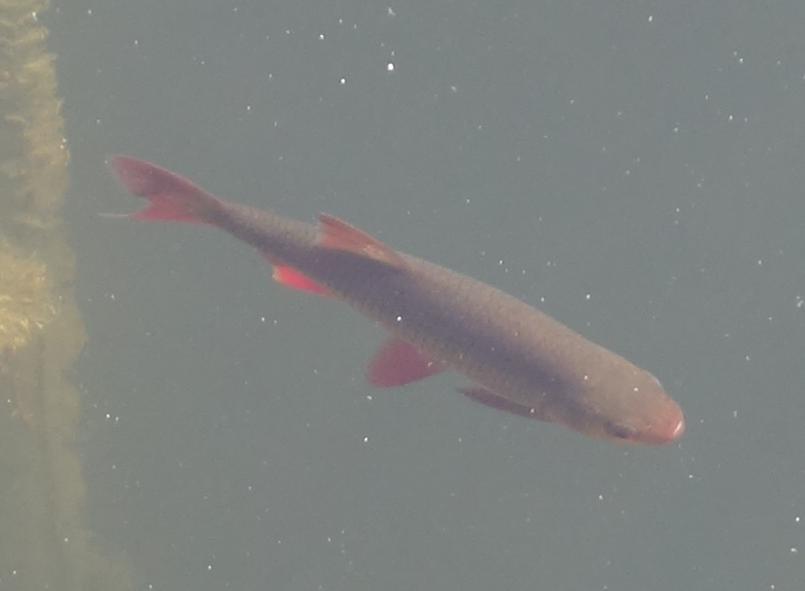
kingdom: Animalia
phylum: Chordata
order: Cypriniformes
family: Cyprinidae
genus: Scardinius
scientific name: Scardinius erythrophthalmus
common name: Rudd
